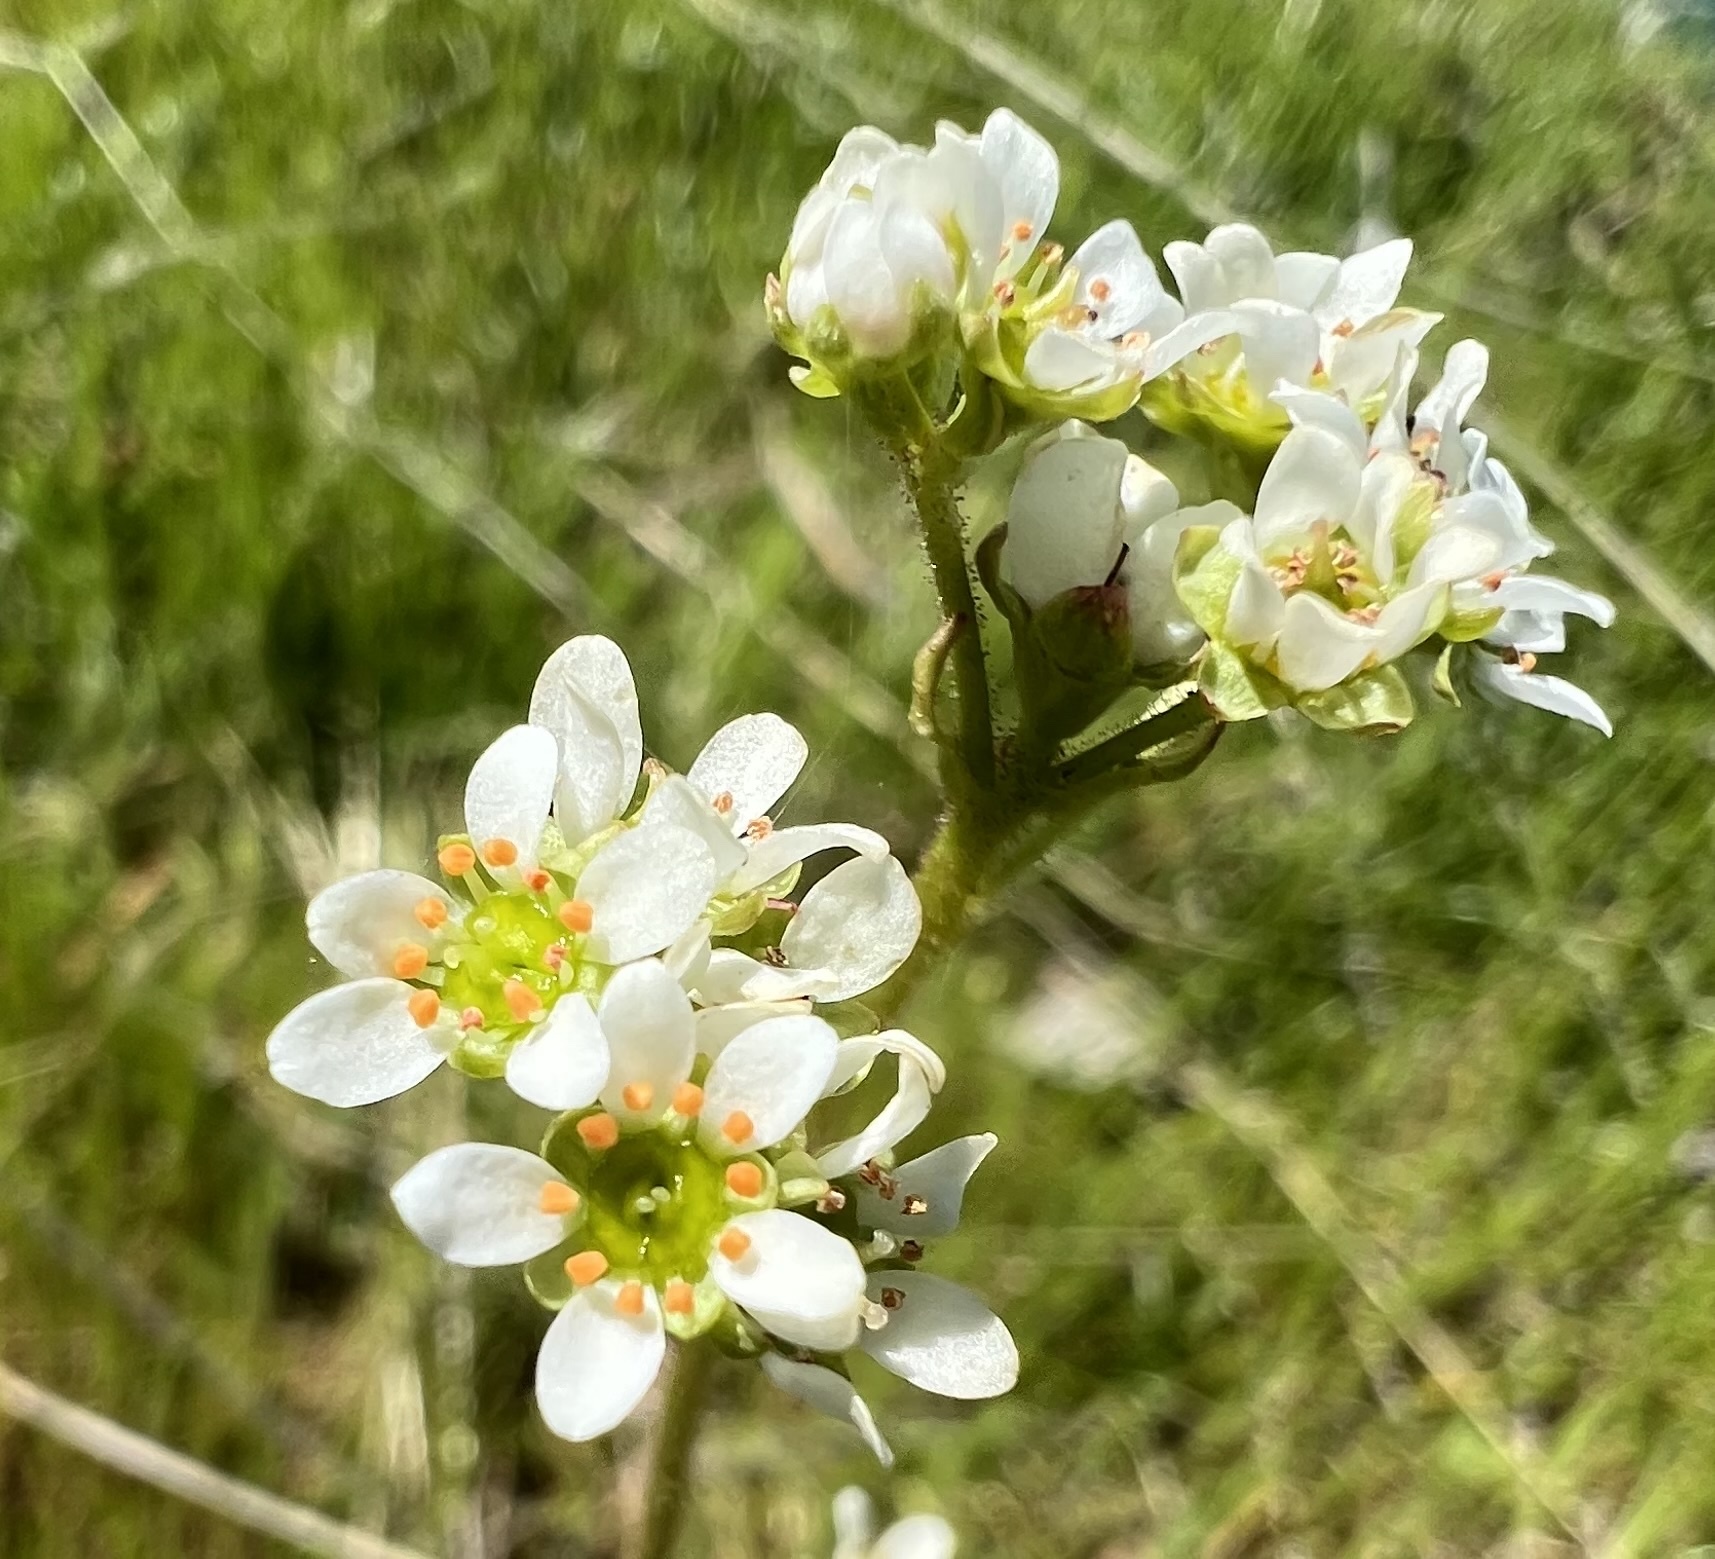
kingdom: Plantae
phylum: Tracheophyta
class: Magnoliopsida
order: Saxifragales
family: Saxifragaceae
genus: Micranthes
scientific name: Micranthes integrifolia
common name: Wholeleaf saxifrage
